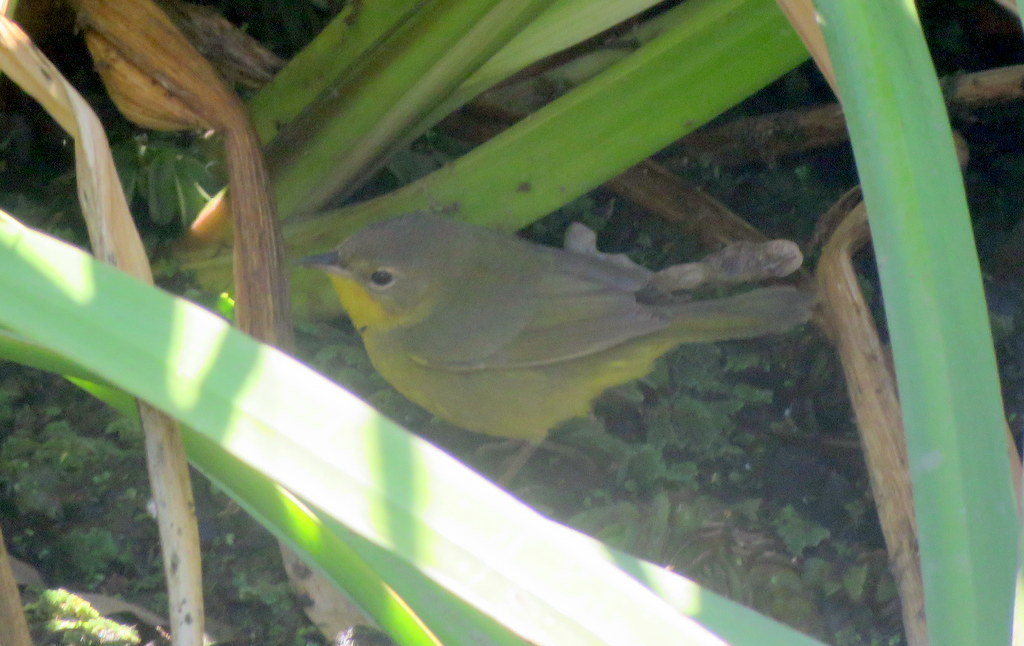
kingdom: Animalia
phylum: Chordata
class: Aves
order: Passeriformes
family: Parulidae
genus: Geothlypis
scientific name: Geothlypis velata
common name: Southern yellowthroat
